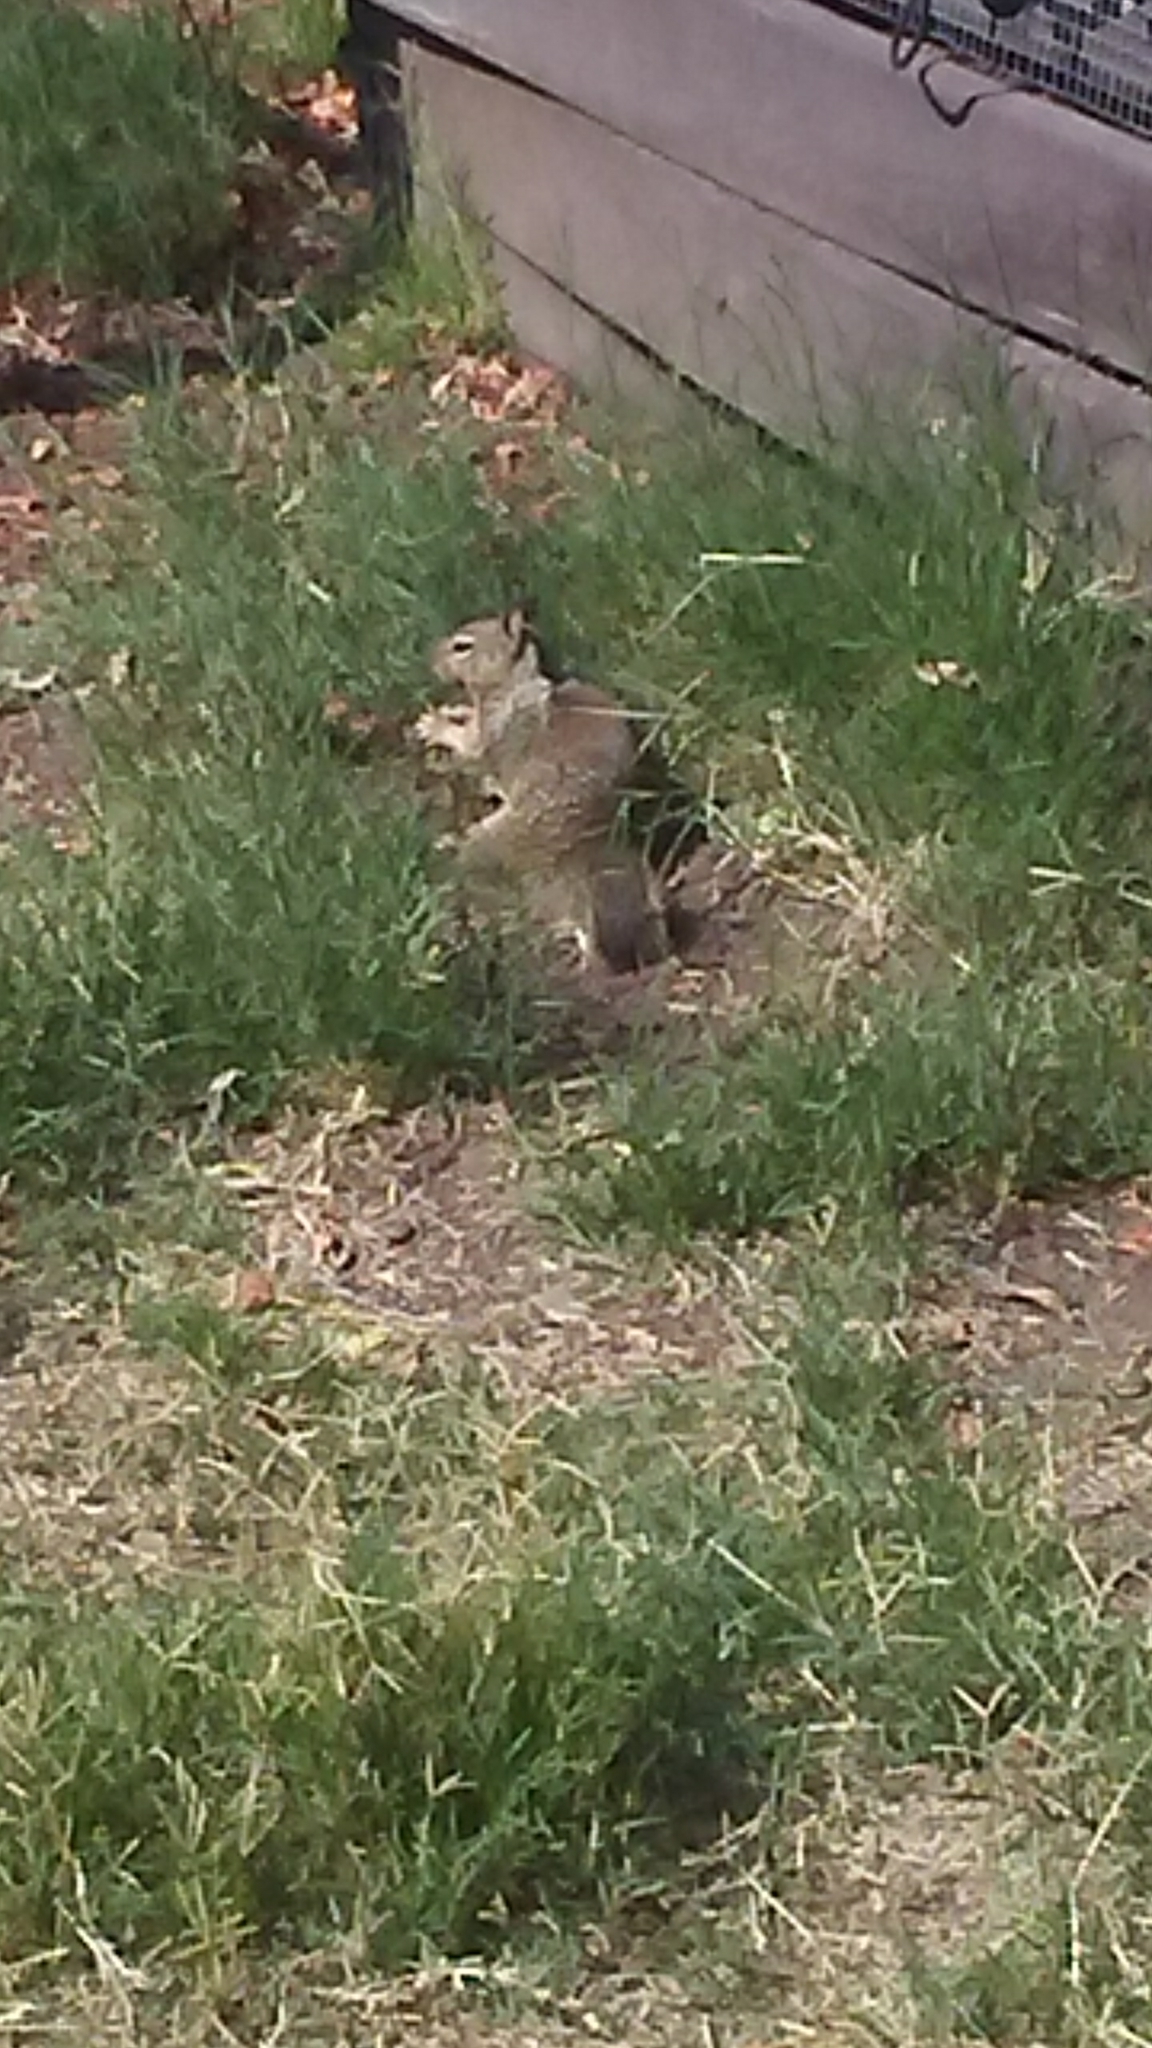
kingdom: Animalia
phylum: Chordata
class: Mammalia
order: Rodentia
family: Sciuridae
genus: Otospermophilus
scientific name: Otospermophilus beecheyi
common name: California ground squirrel
